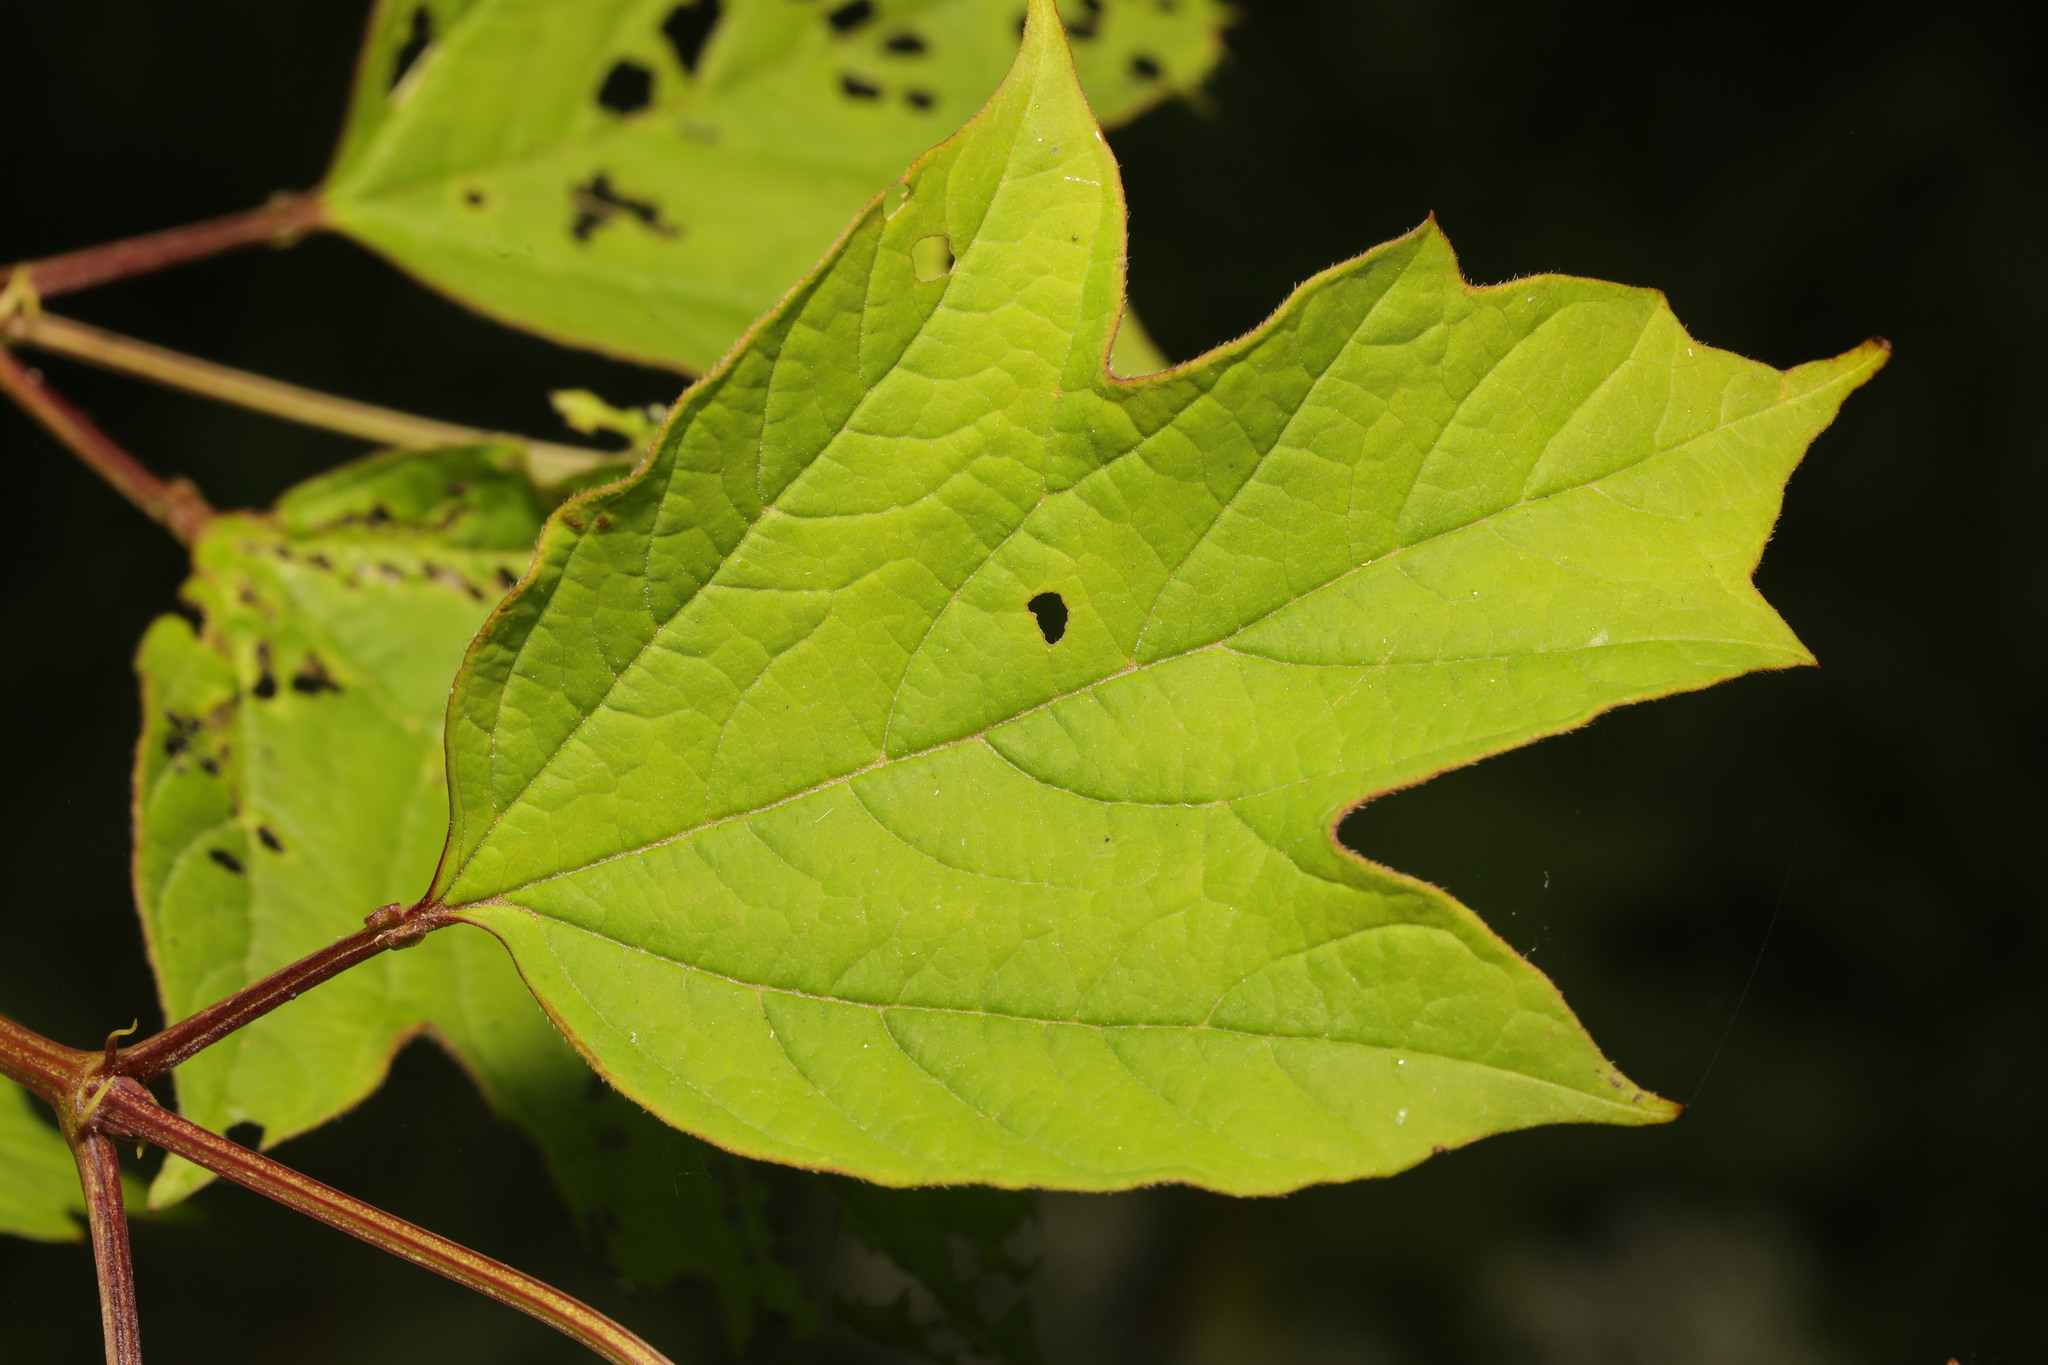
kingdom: Plantae
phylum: Tracheophyta
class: Magnoliopsida
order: Dipsacales
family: Viburnaceae
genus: Viburnum
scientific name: Viburnum opulus
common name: Guelder-rose
